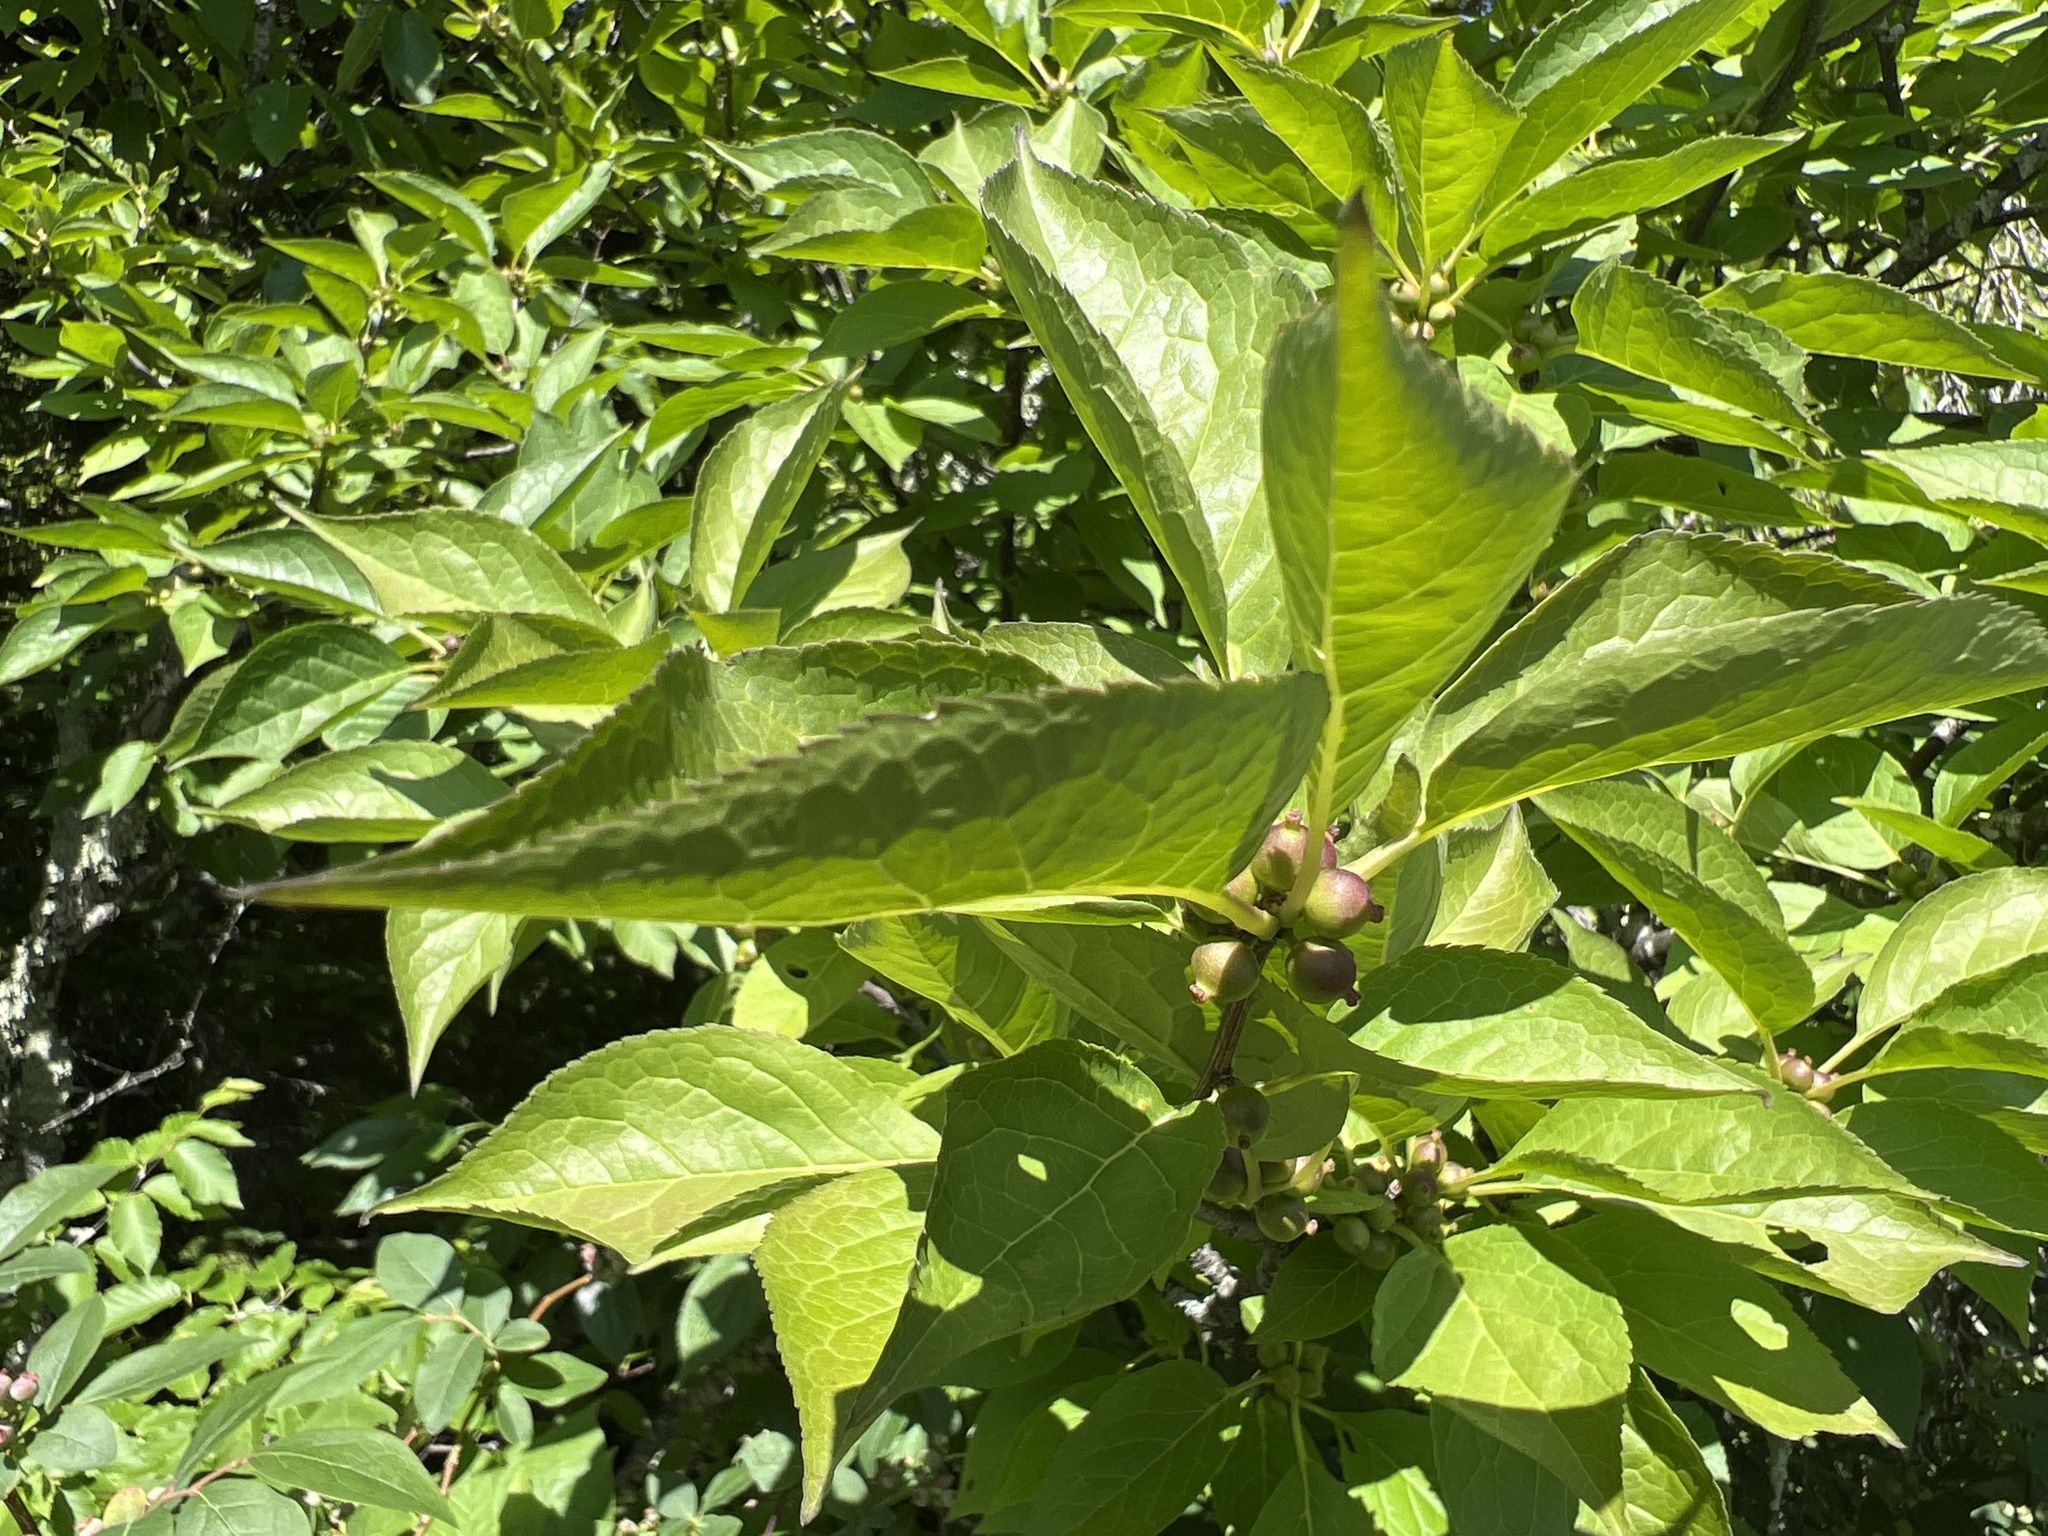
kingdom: Plantae
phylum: Tracheophyta
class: Magnoliopsida
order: Aquifoliales
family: Aquifoliaceae
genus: Ilex
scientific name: Ilex montana
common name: Mountain winterberry
